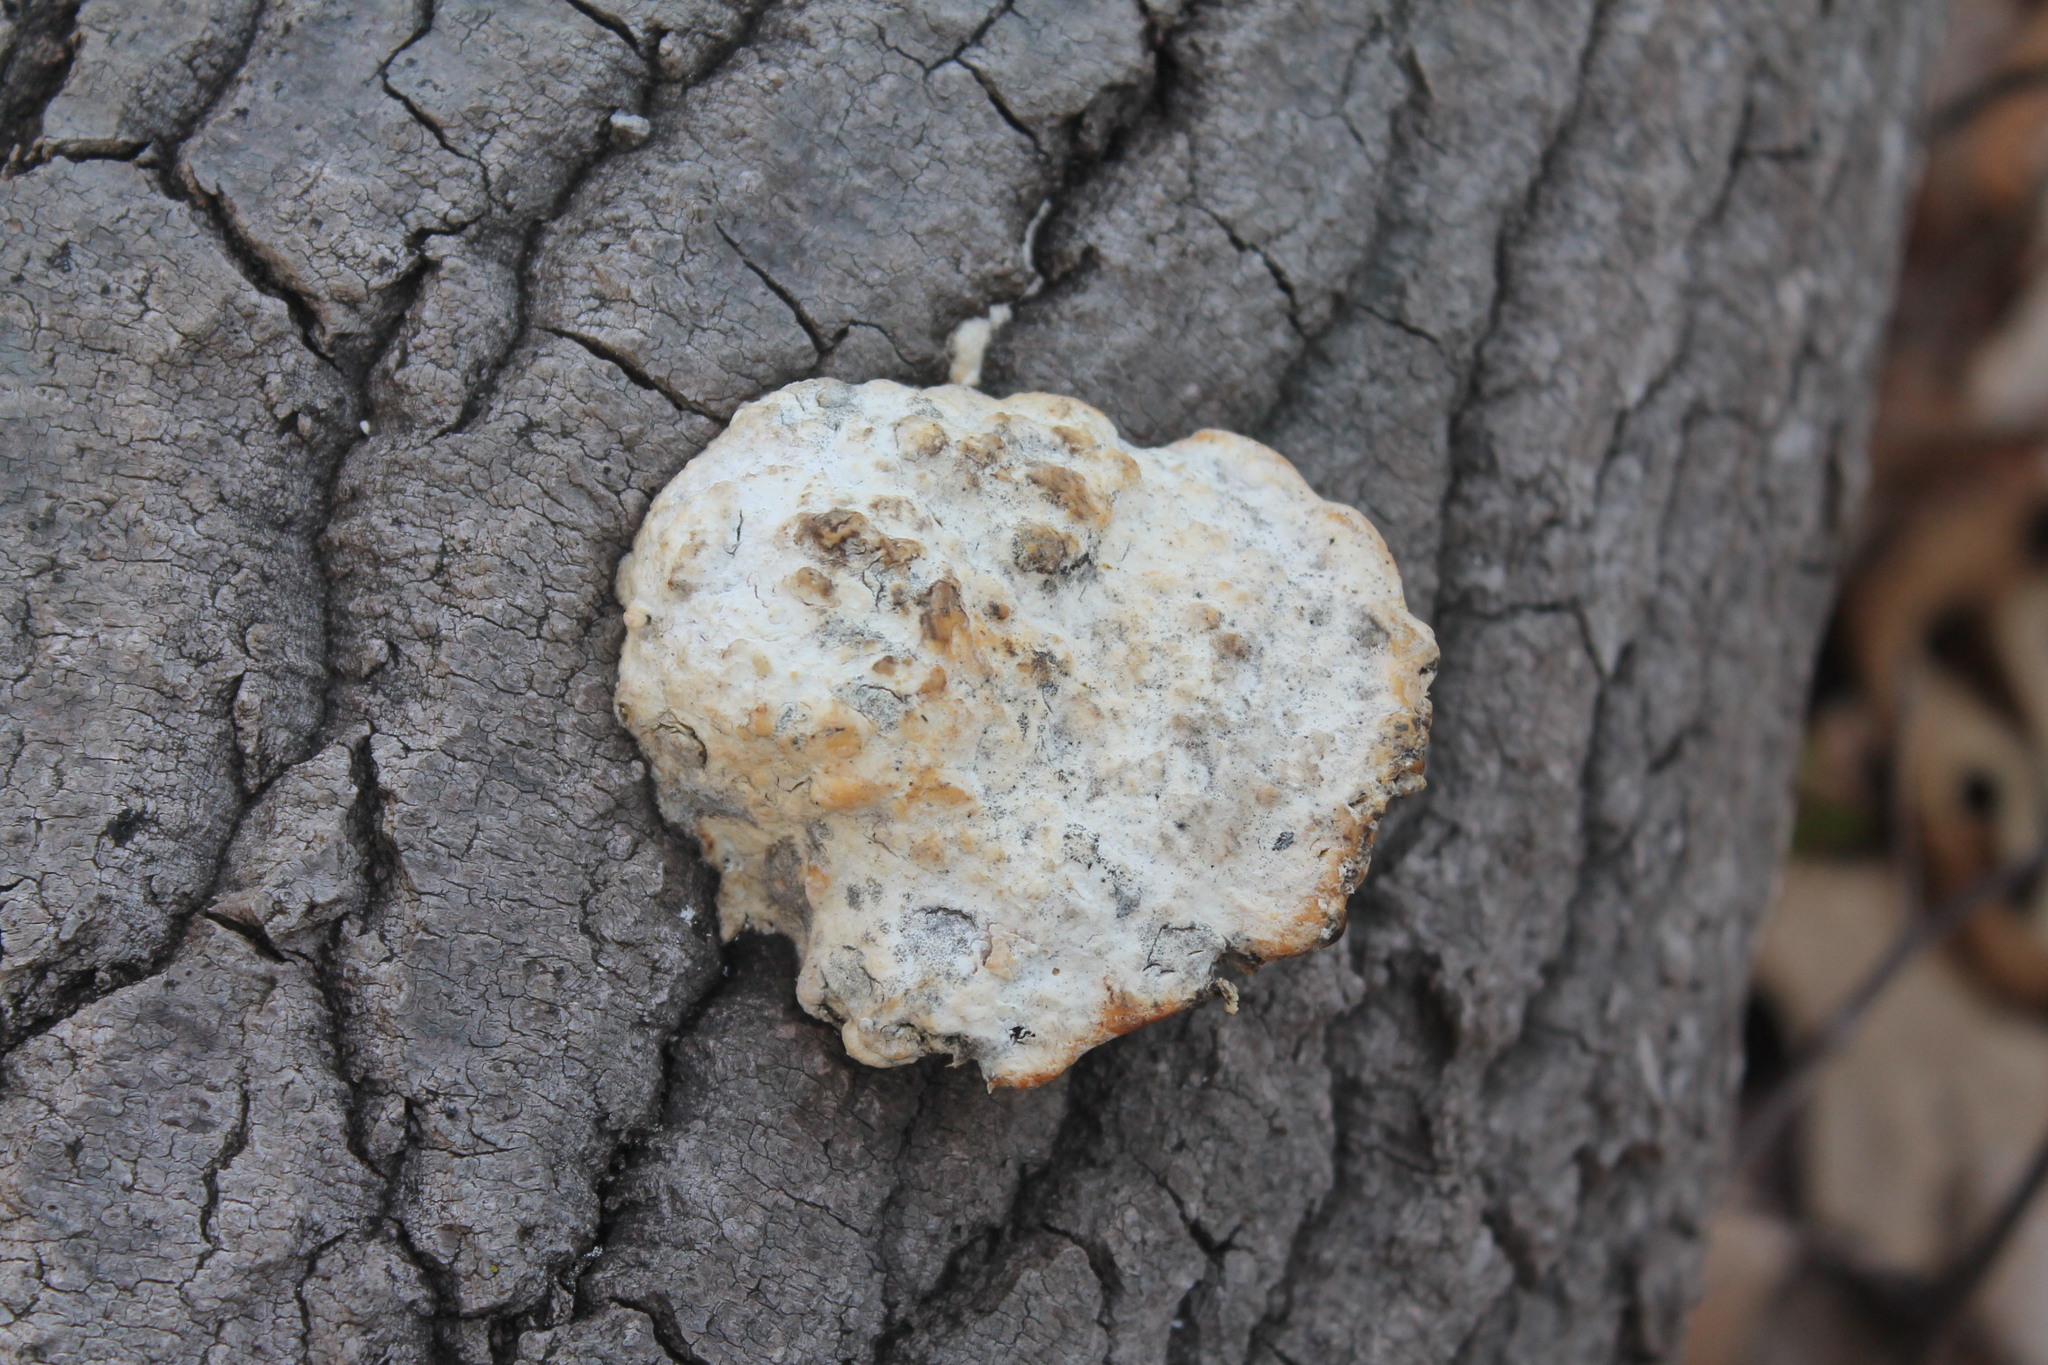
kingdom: Fungi
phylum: Basidiomycota
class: Agaricomycetes
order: Polyporales
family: Polyporaceae
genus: Trametes
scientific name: Trametes gibbosa
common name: Lumpy bracket
